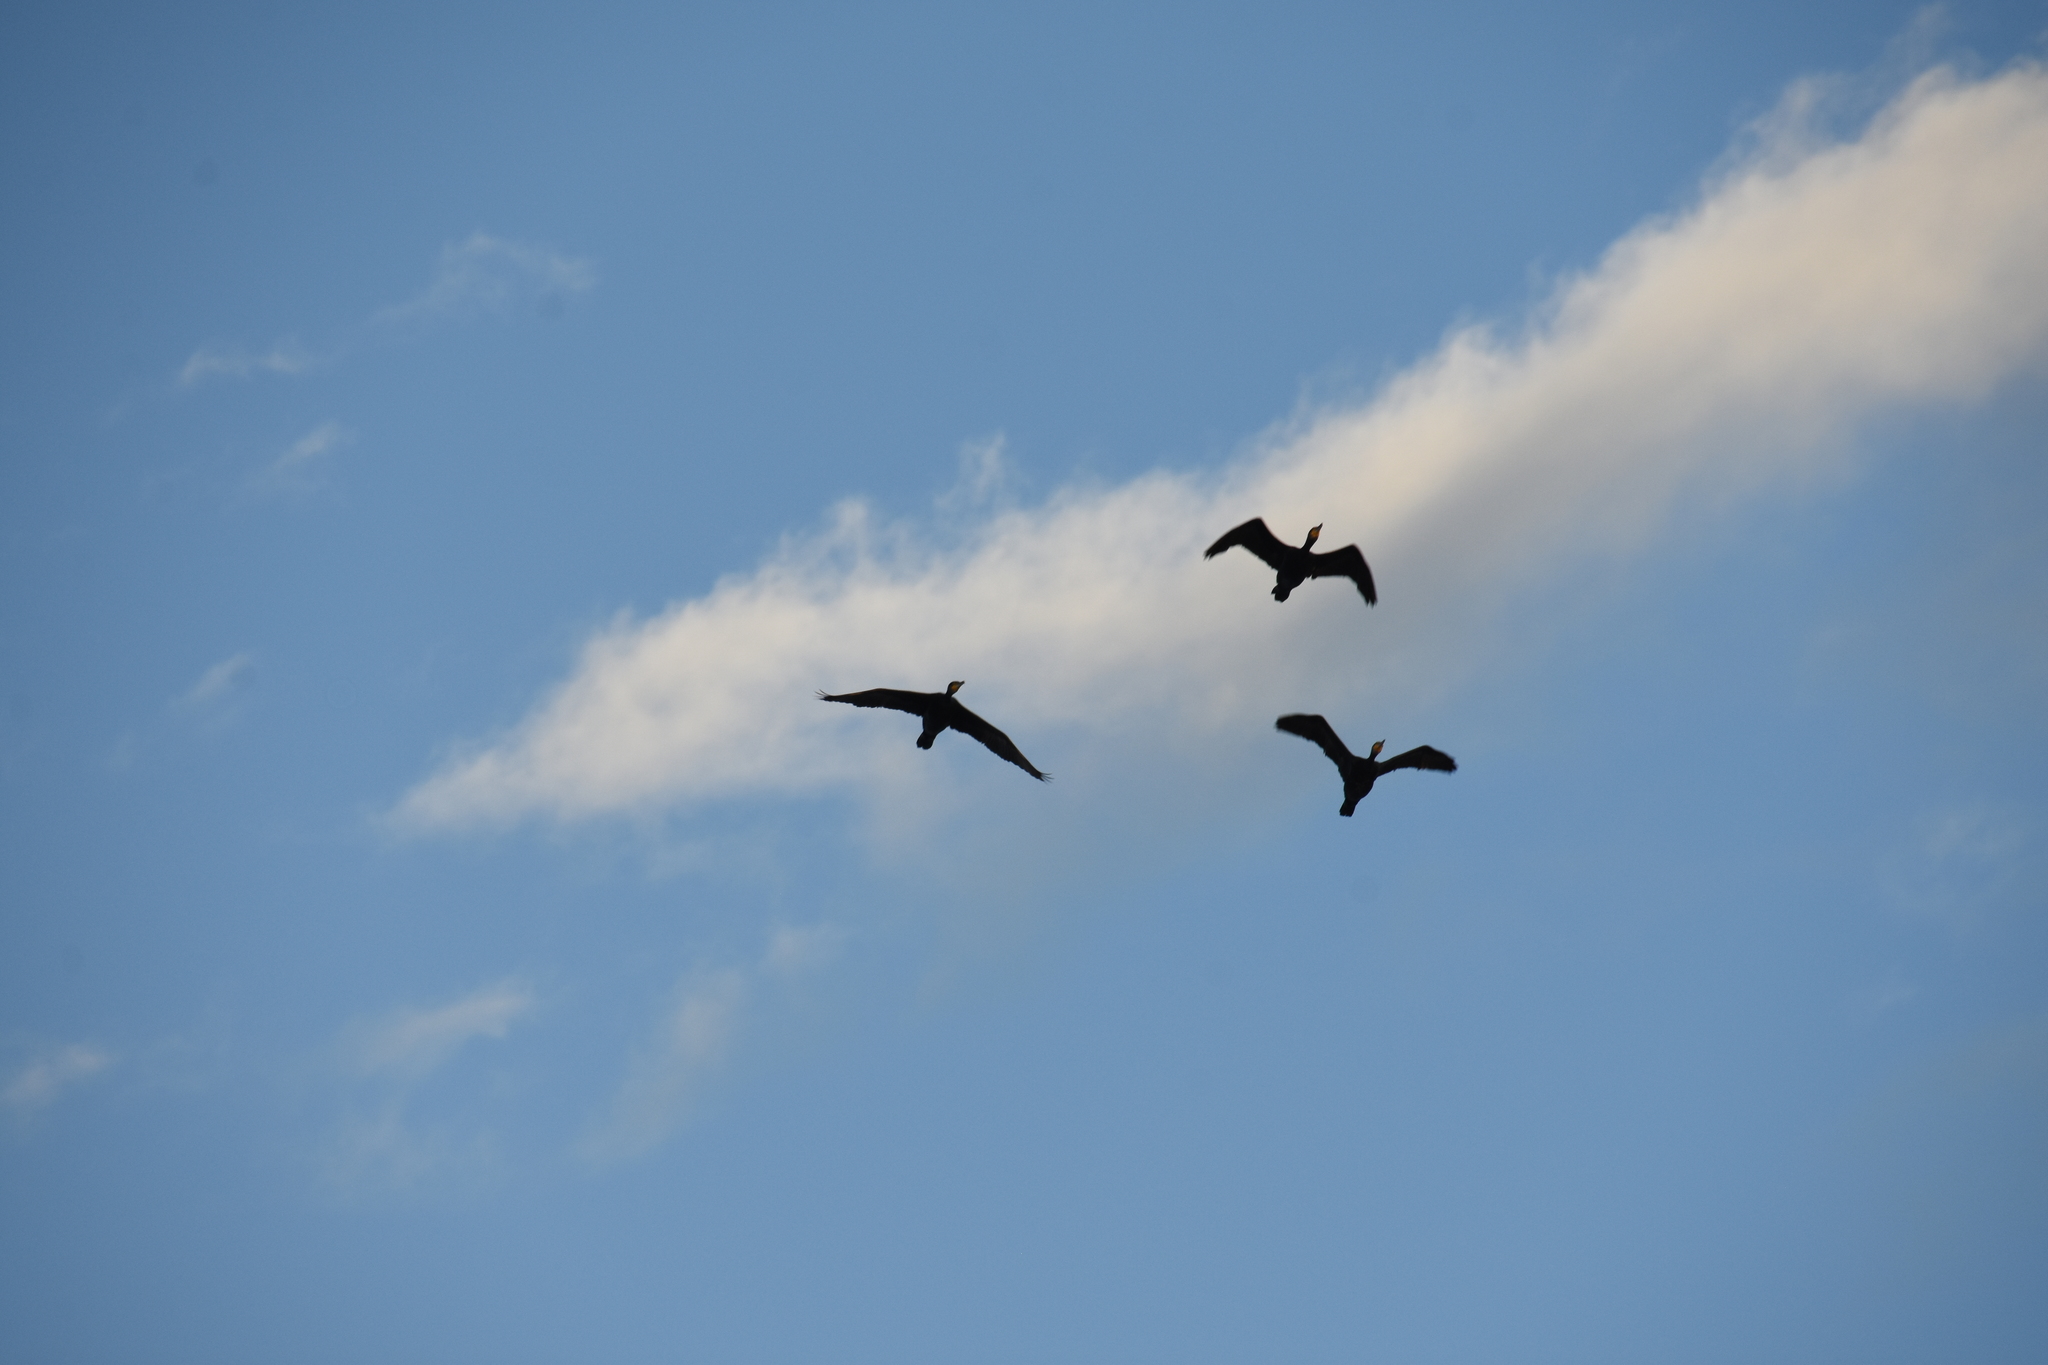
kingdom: Animalia
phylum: Chordata
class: Aves
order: Suliformes
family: Phalacrocoracidae
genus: Phalacrocorax
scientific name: Phalacrocorax carbo
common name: Great cormorant
